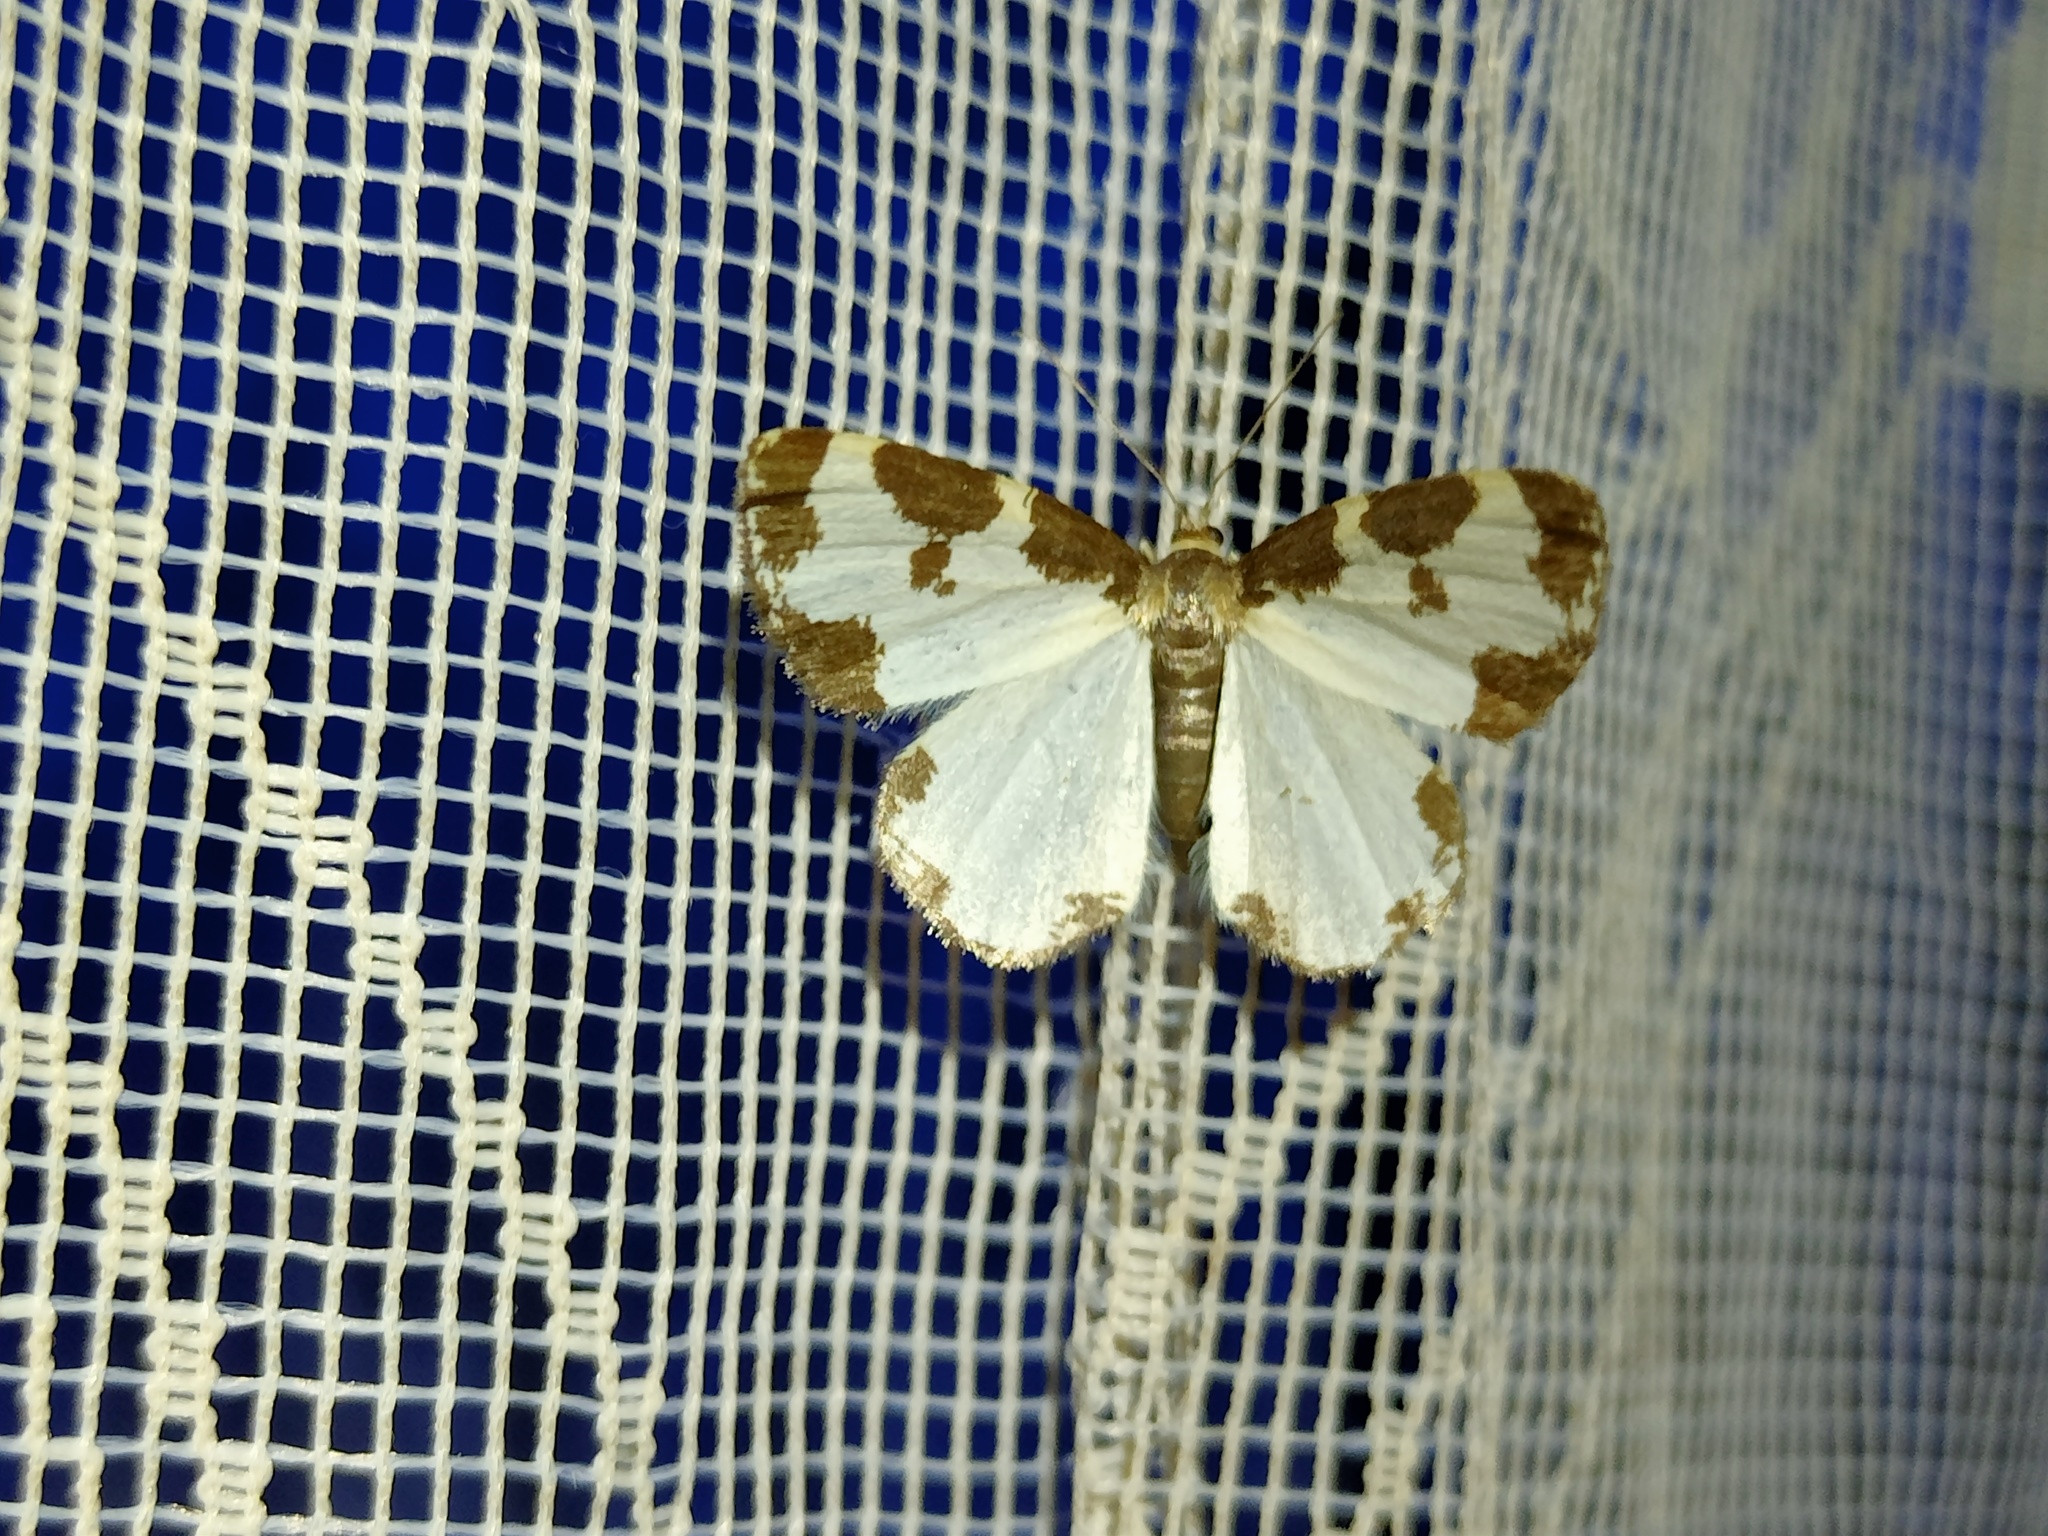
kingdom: Animalia
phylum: Arthropoda
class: Insecta
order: Lepidoptera
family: Geometridae
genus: Lomaspilis
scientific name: Lomaspilis marginata
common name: Clouded border
